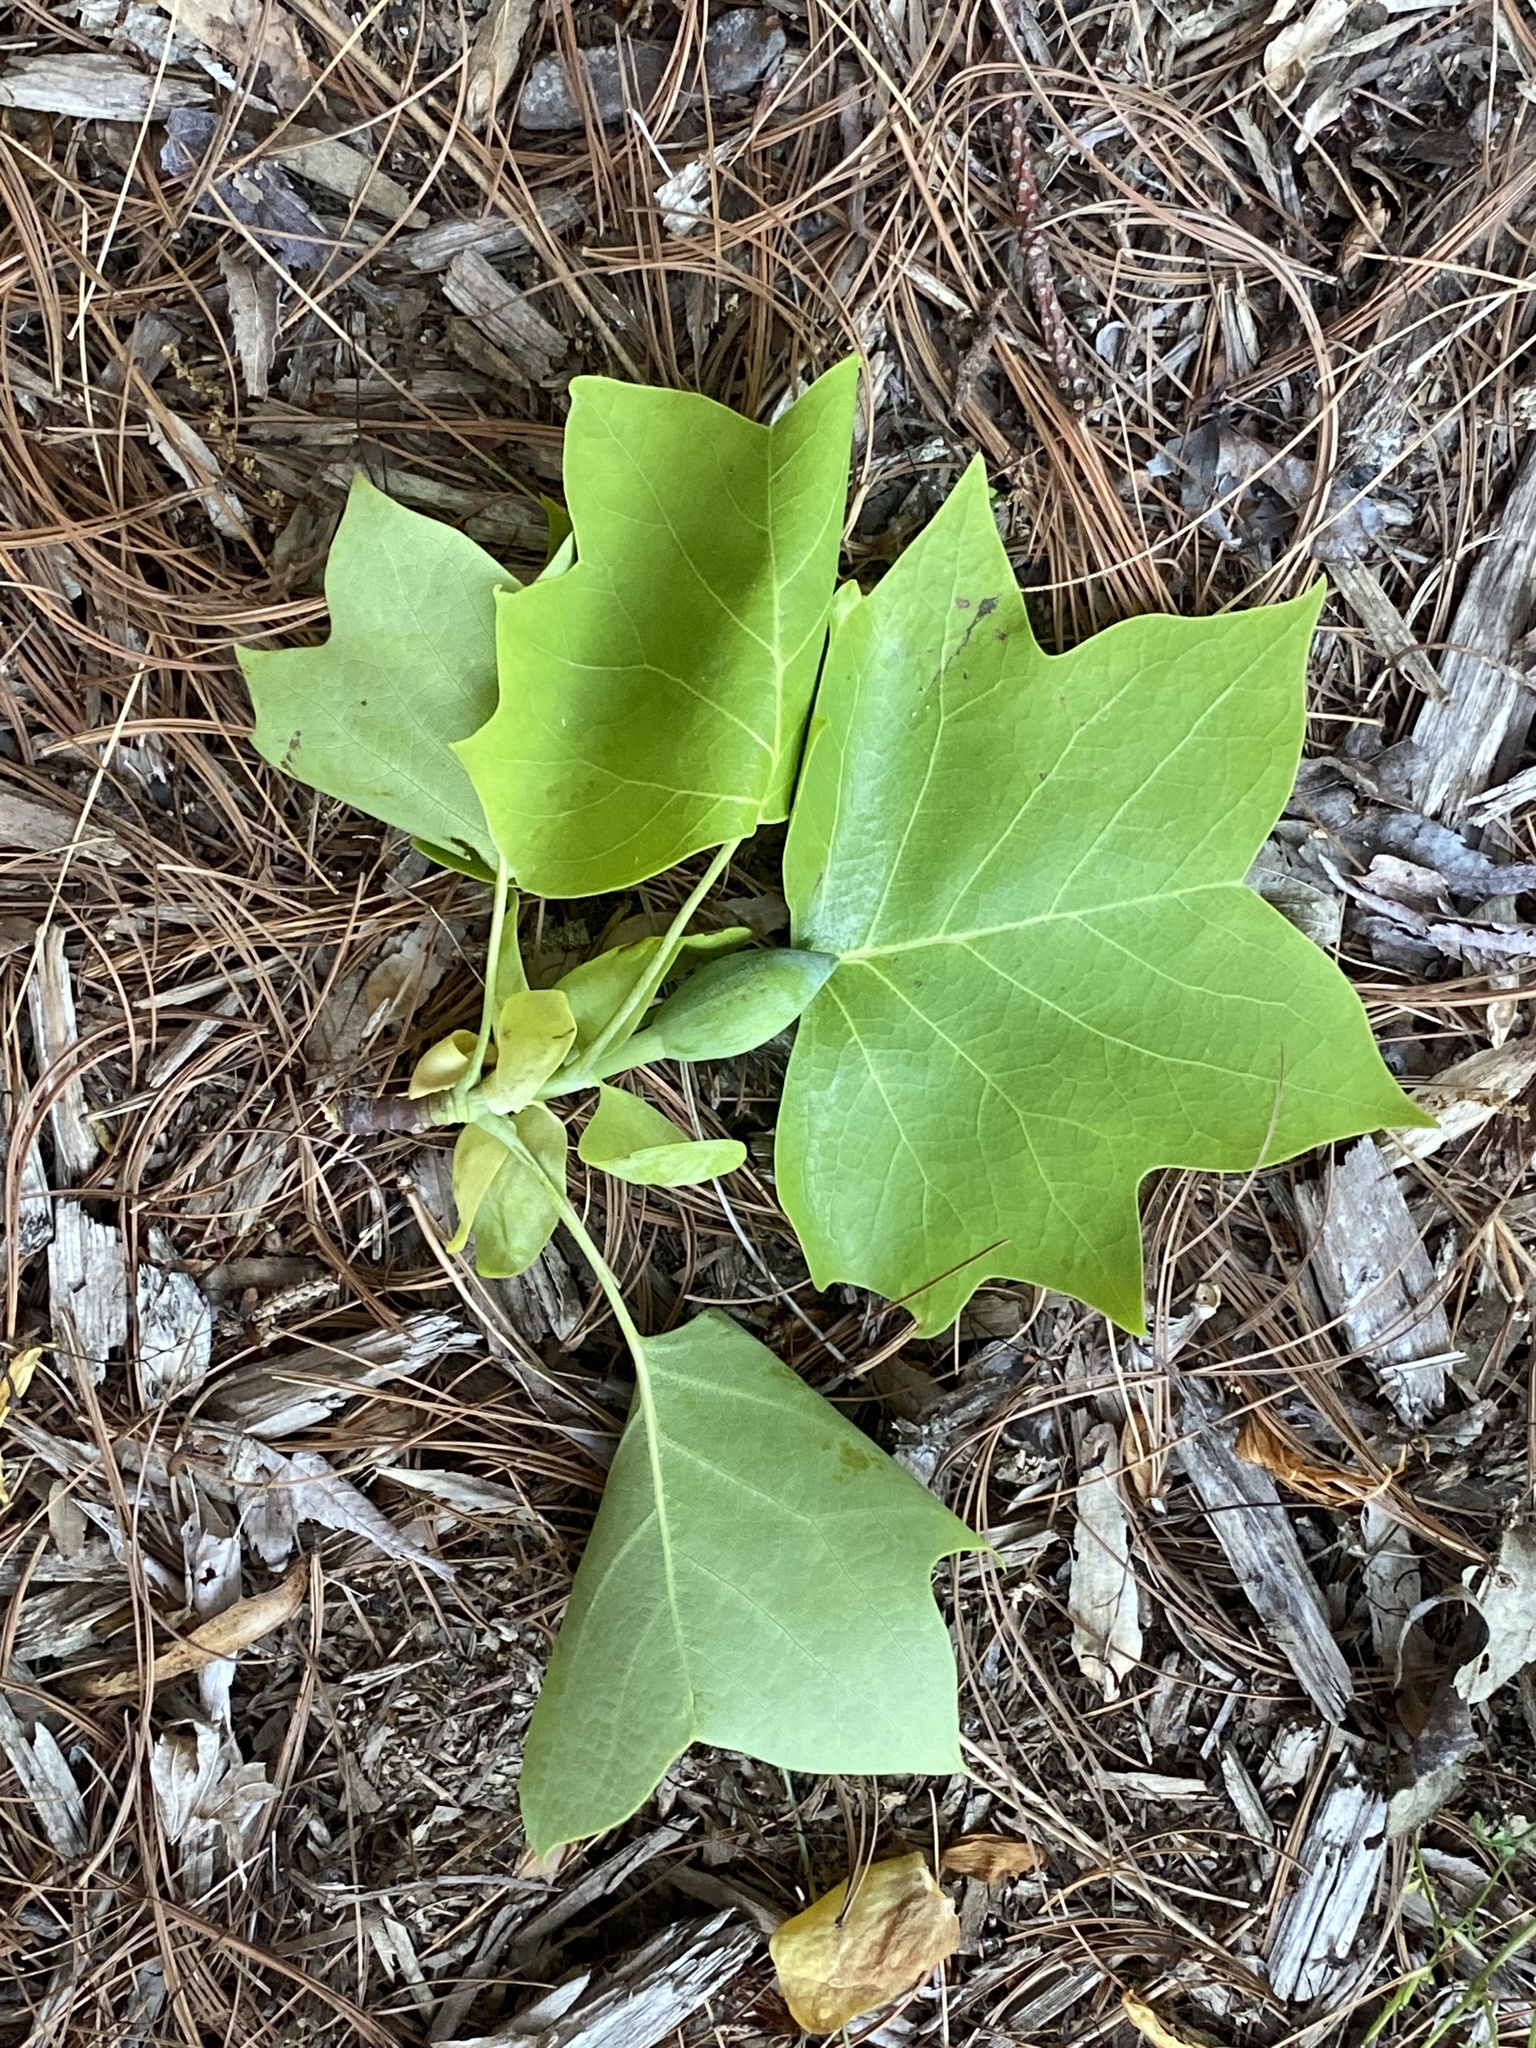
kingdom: Plantae
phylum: Tracheophyta
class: Magnoliopsida
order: Magnoliales
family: Magnoliaceae
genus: Liriodendron
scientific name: Liriodendron tulipifera
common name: Tulip tree
